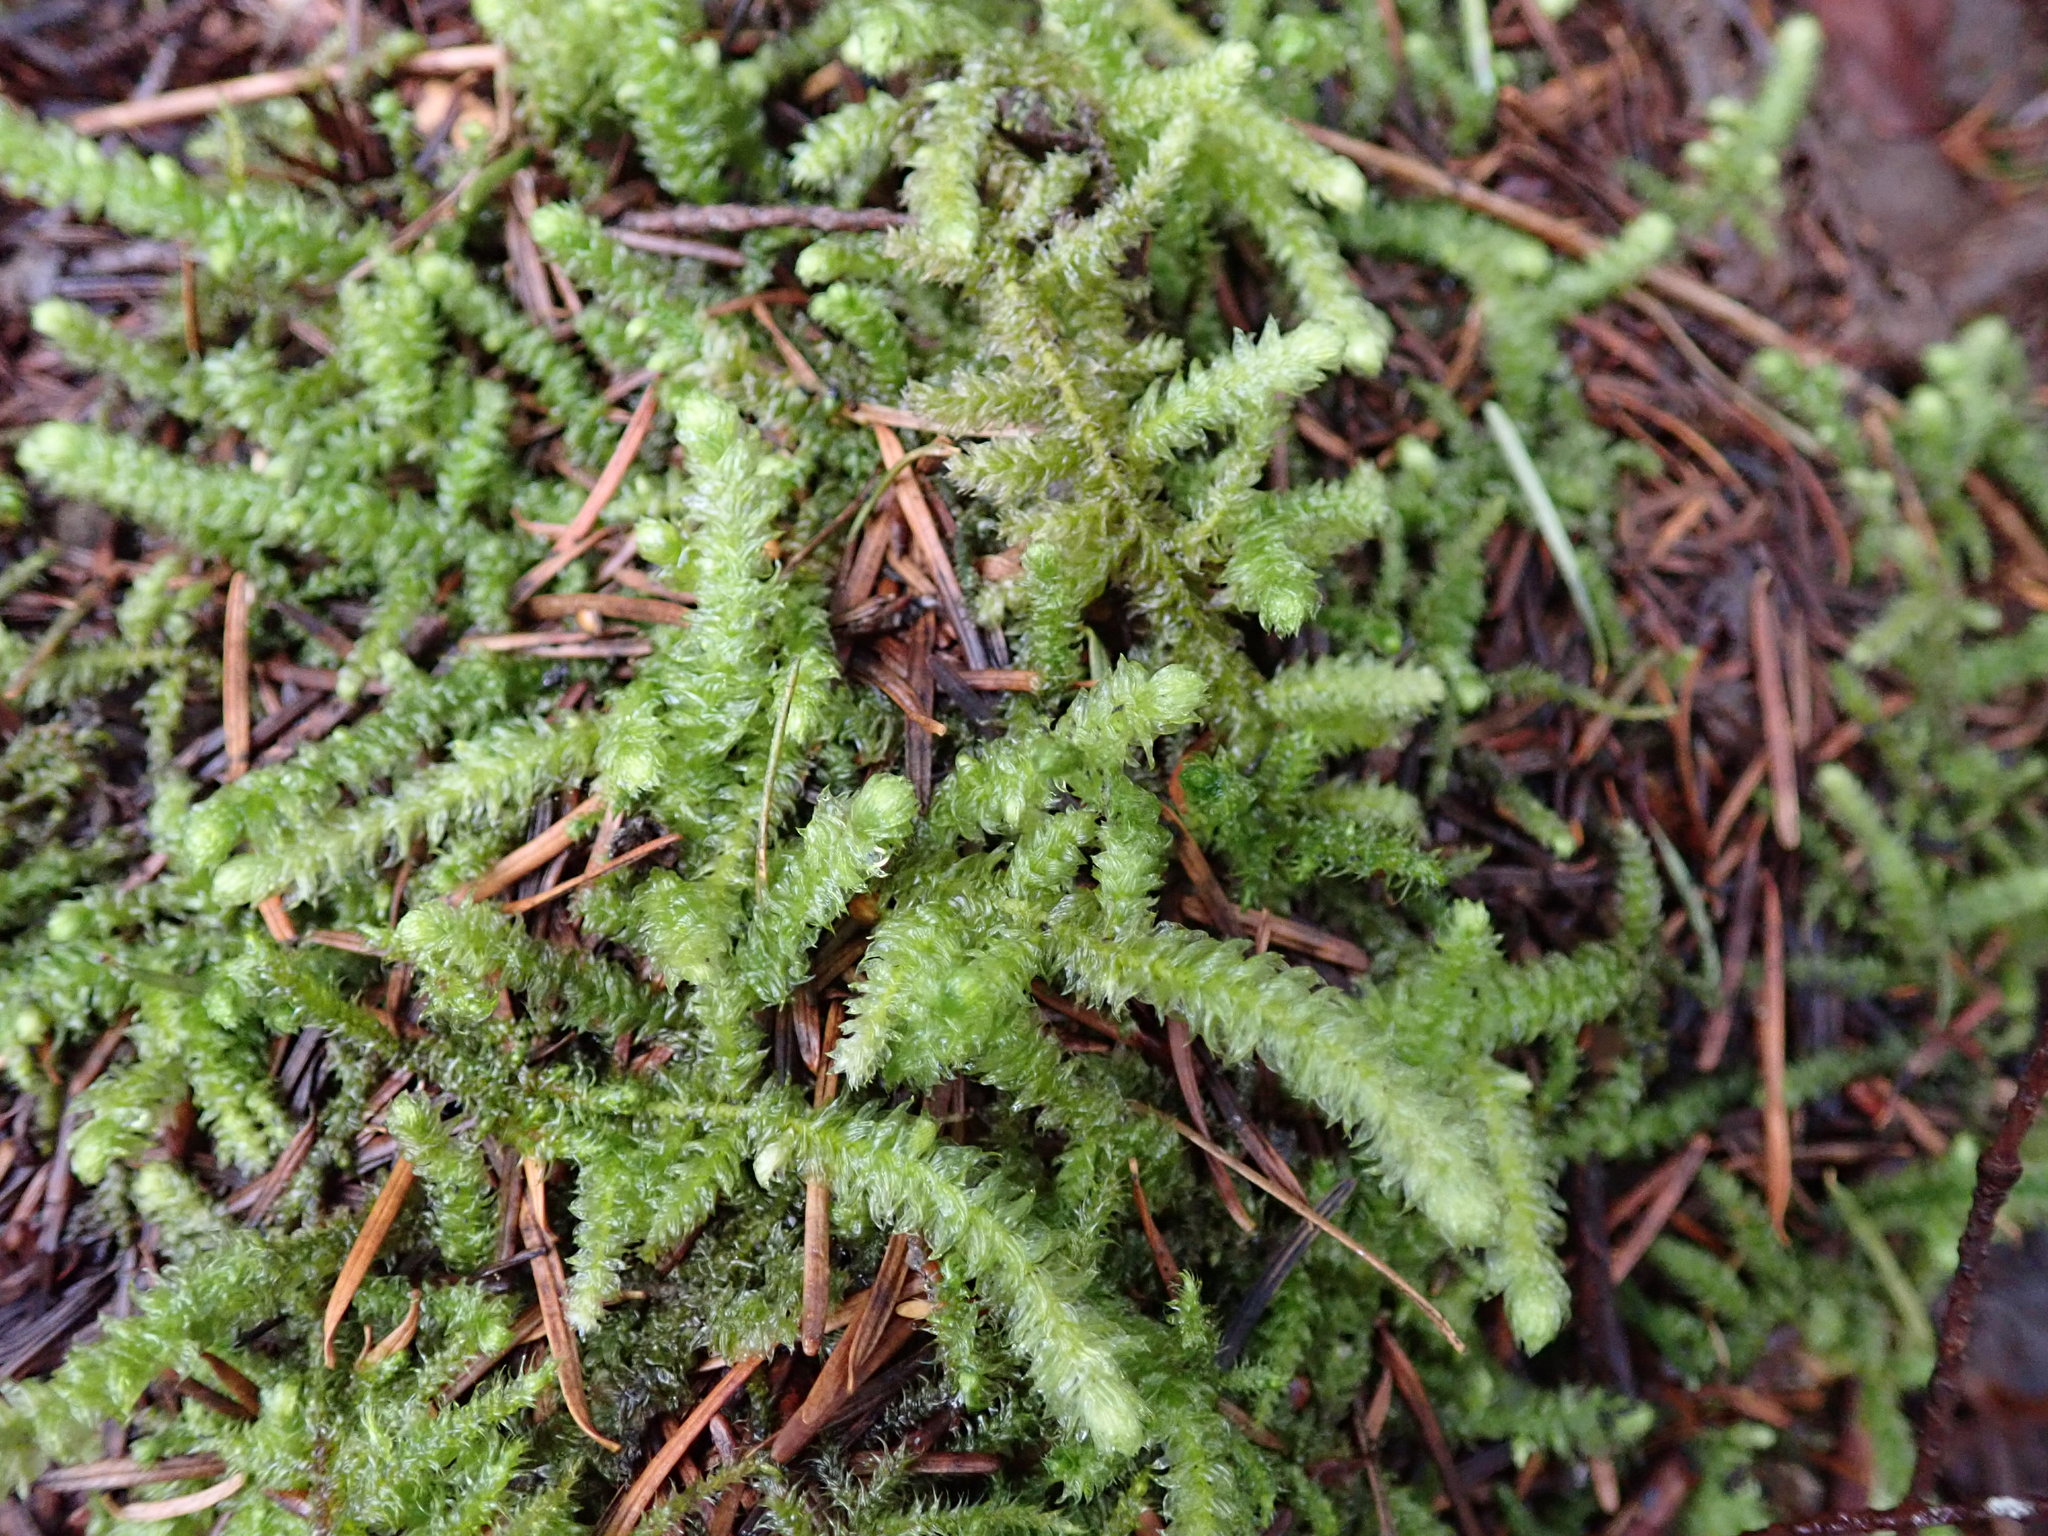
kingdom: Plantae
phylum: Bryophyta
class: Bryopsida
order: Hypnales
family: Hylocomiaceae
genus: Rhytidiopsis
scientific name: Rhytidiopsis robusta
